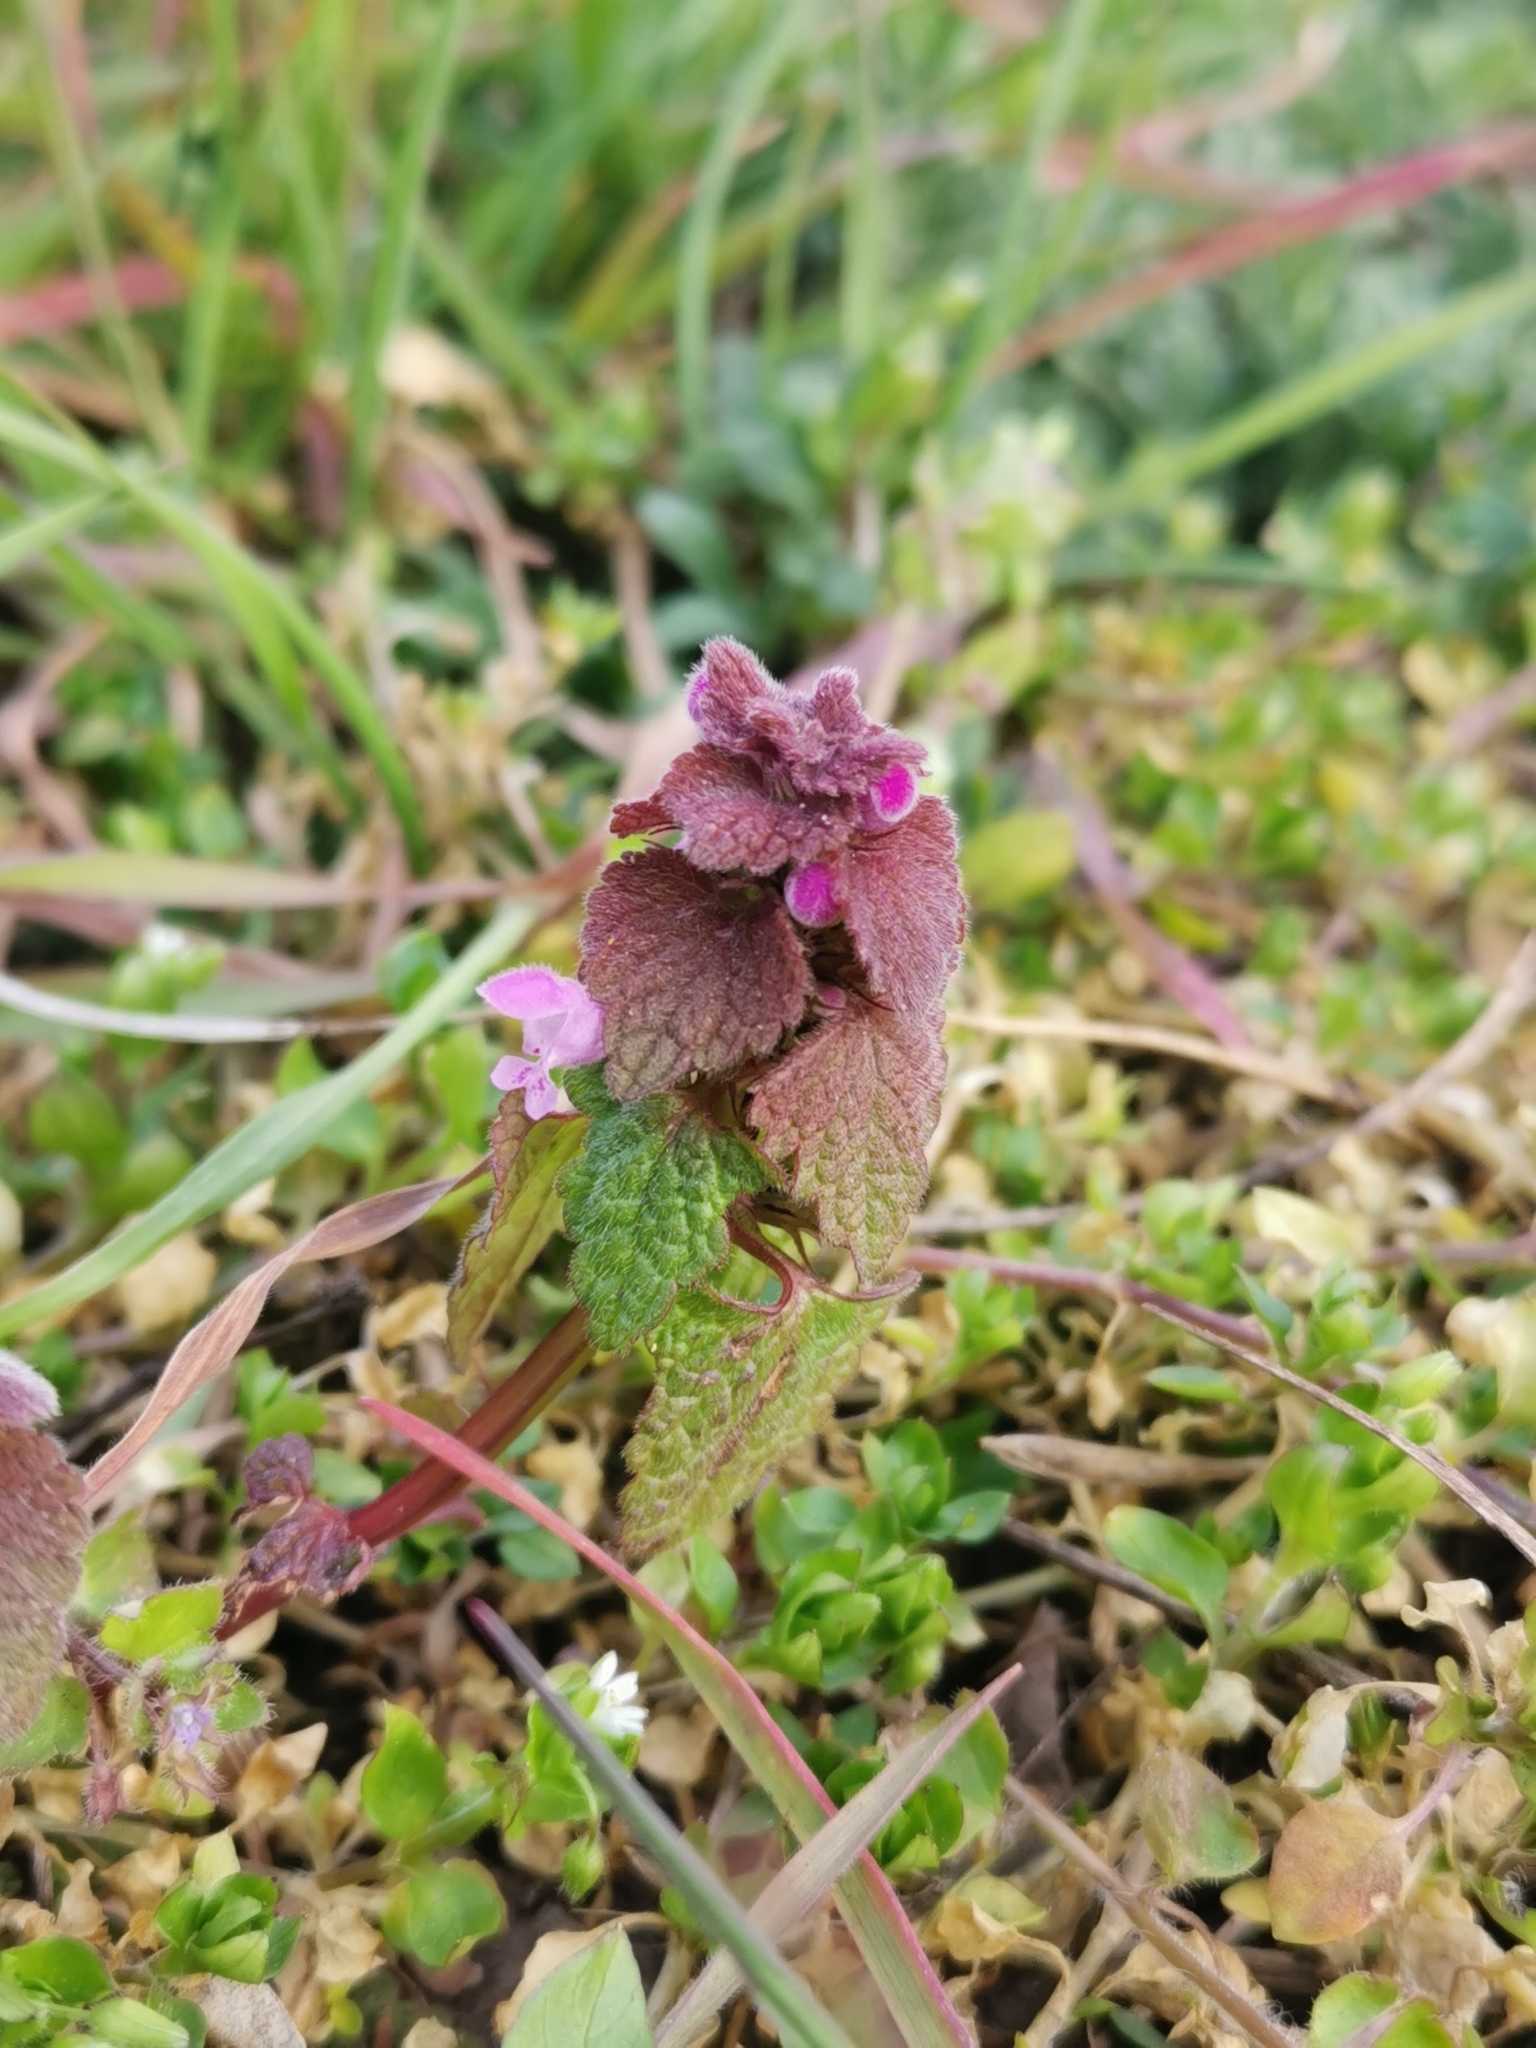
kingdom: Plantae
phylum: Tracheophyta
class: Magnoliopsida
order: Lamiales
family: Lamiaceae
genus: Lamium
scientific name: Lamium purpureum
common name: Red dead-nettle
